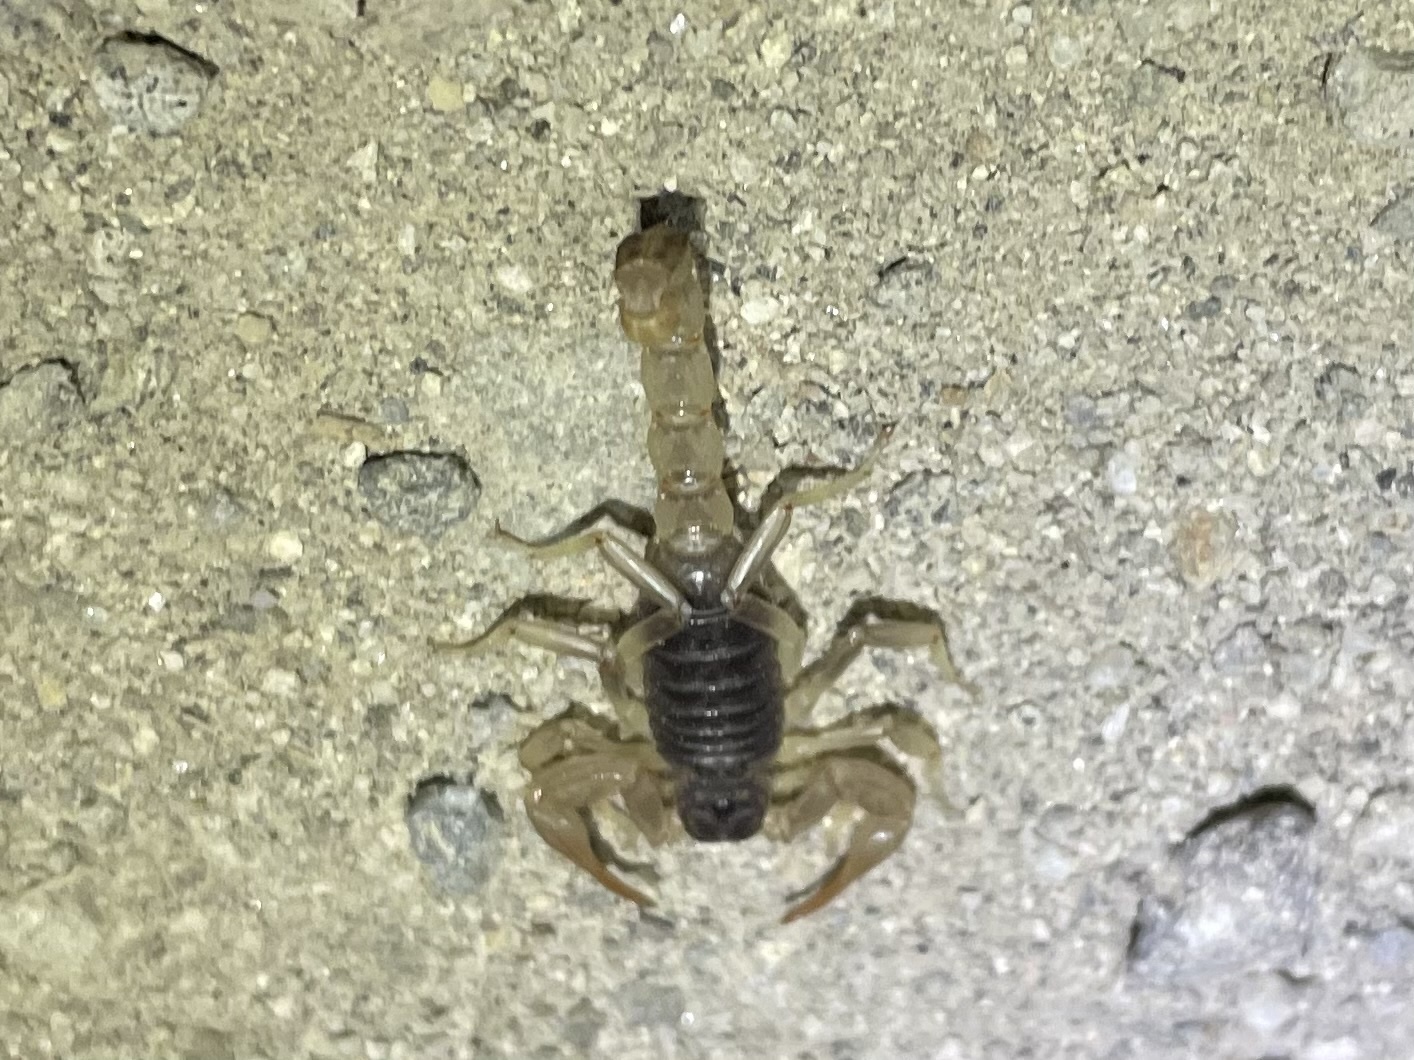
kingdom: Animalia
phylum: Arthropoda
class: Arachnida
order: Scorpiones
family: Vaejovidae
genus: Paruroctonus
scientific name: Paruroctonus silvestrii
